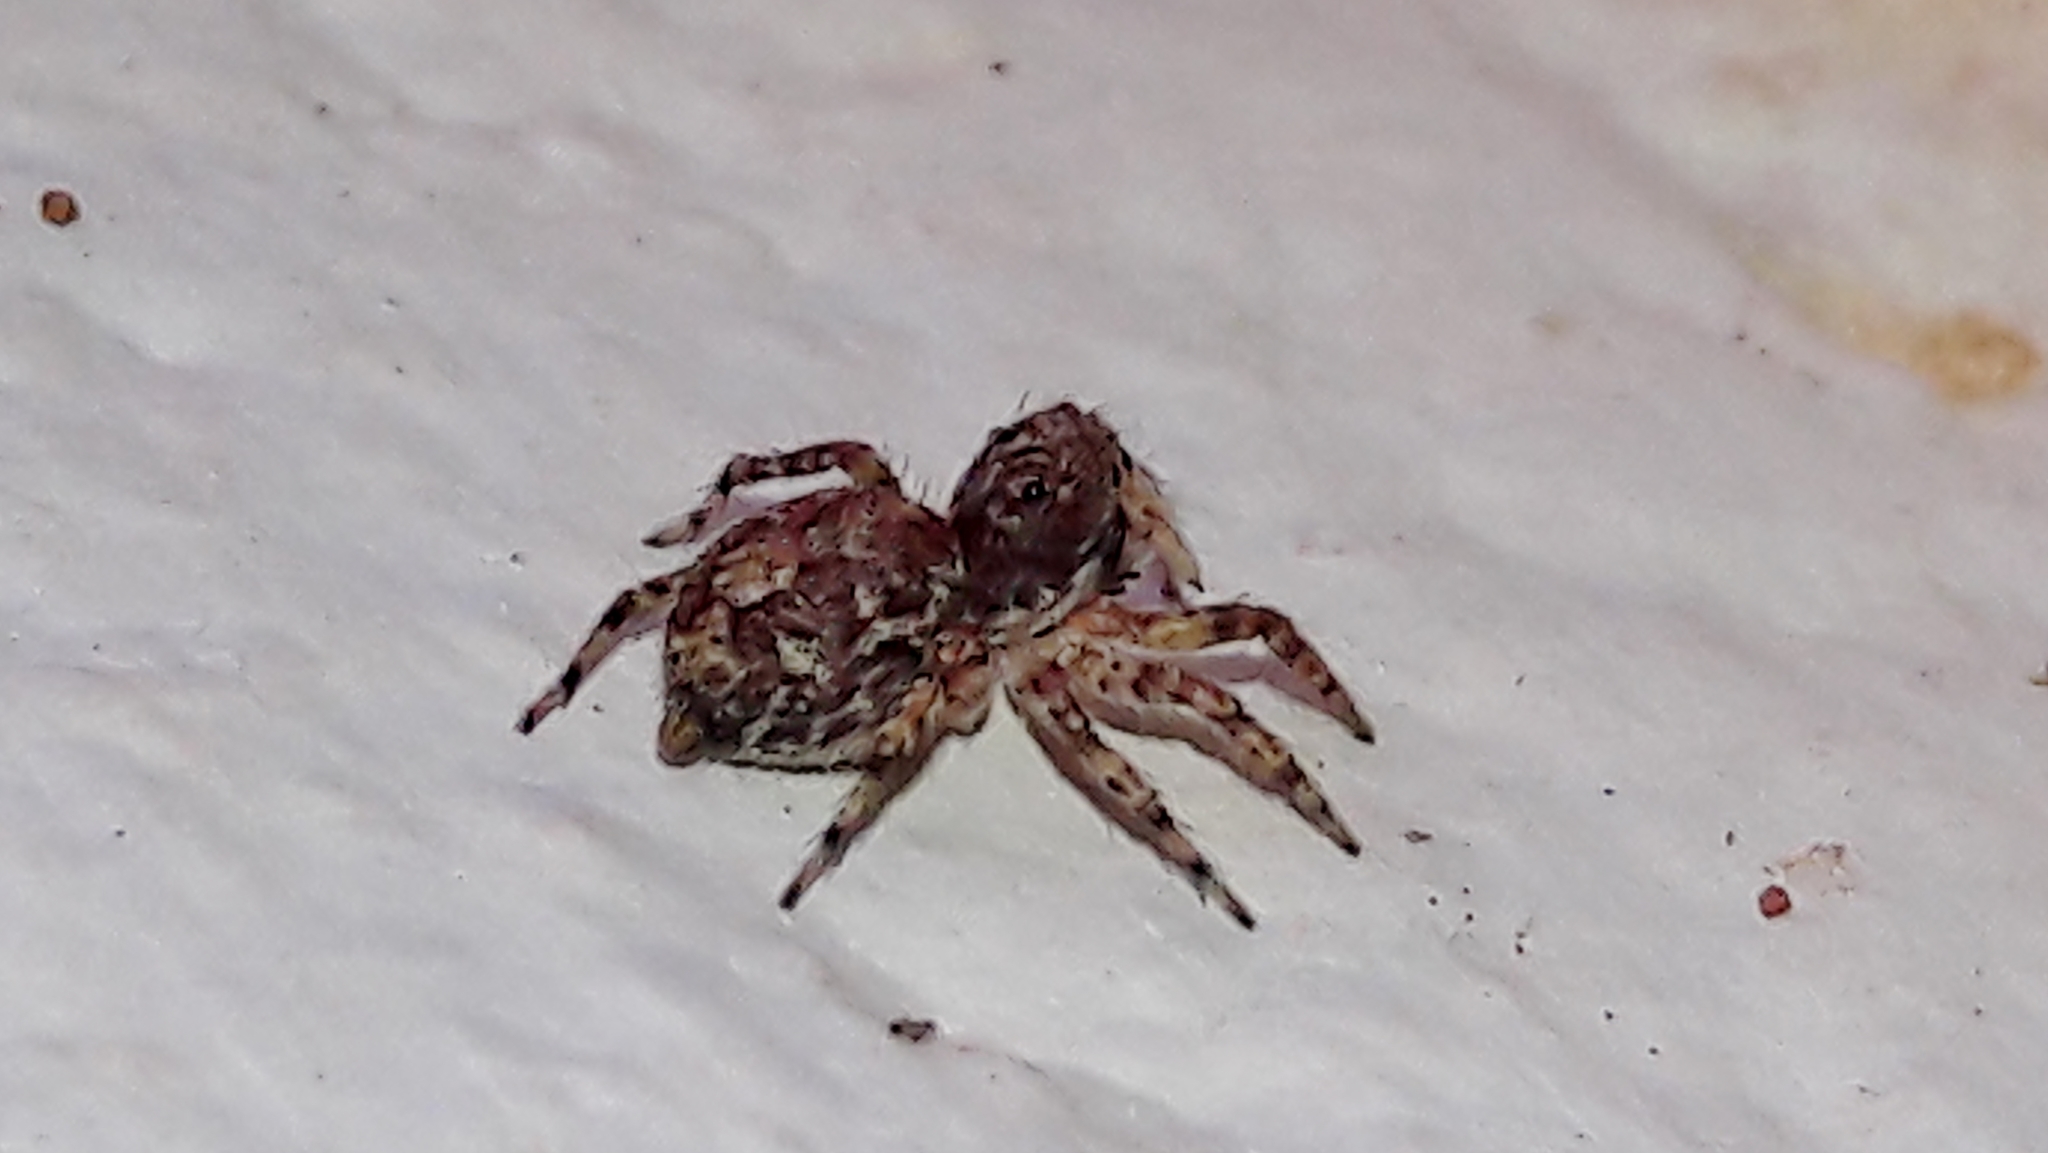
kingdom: Animalia
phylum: Arthropoda
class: Arachnida
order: Araneae
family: Salticidae
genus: Marma
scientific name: Marma nigritarsis
